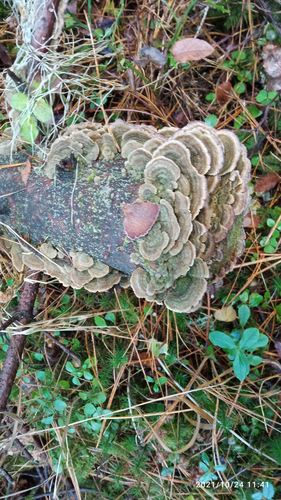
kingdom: Fungi
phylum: Basidiomycota
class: Agaricomycetes
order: Hymenochaetales
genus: Trichaptum
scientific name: Trichaptum fuscoviolaceum
